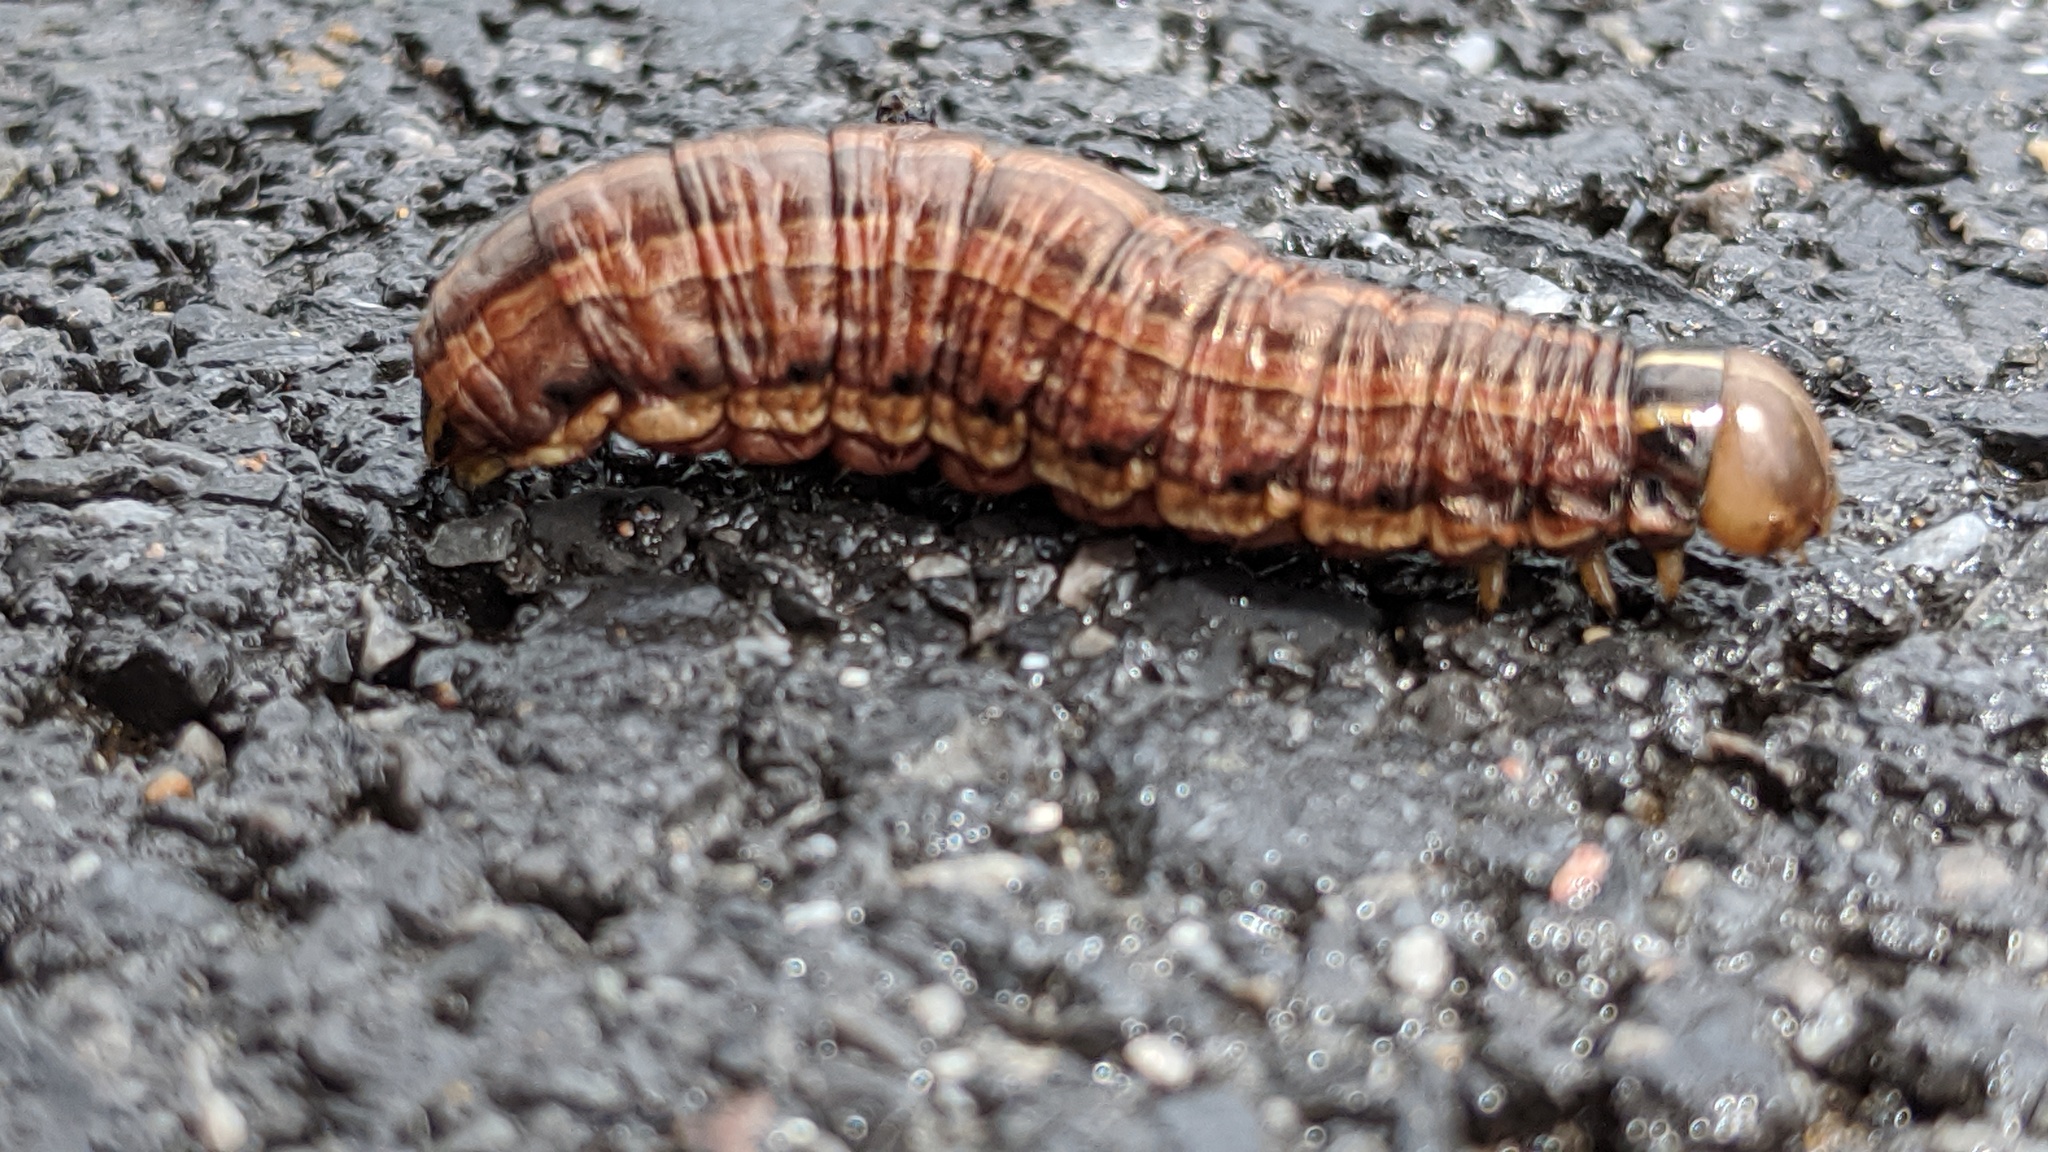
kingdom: Animalia
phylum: Arthropoda
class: Insecta
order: Lepidoptera
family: Noctuidae
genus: Nephelodes
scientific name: Nephelodes minians
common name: Bronzed cutworm
